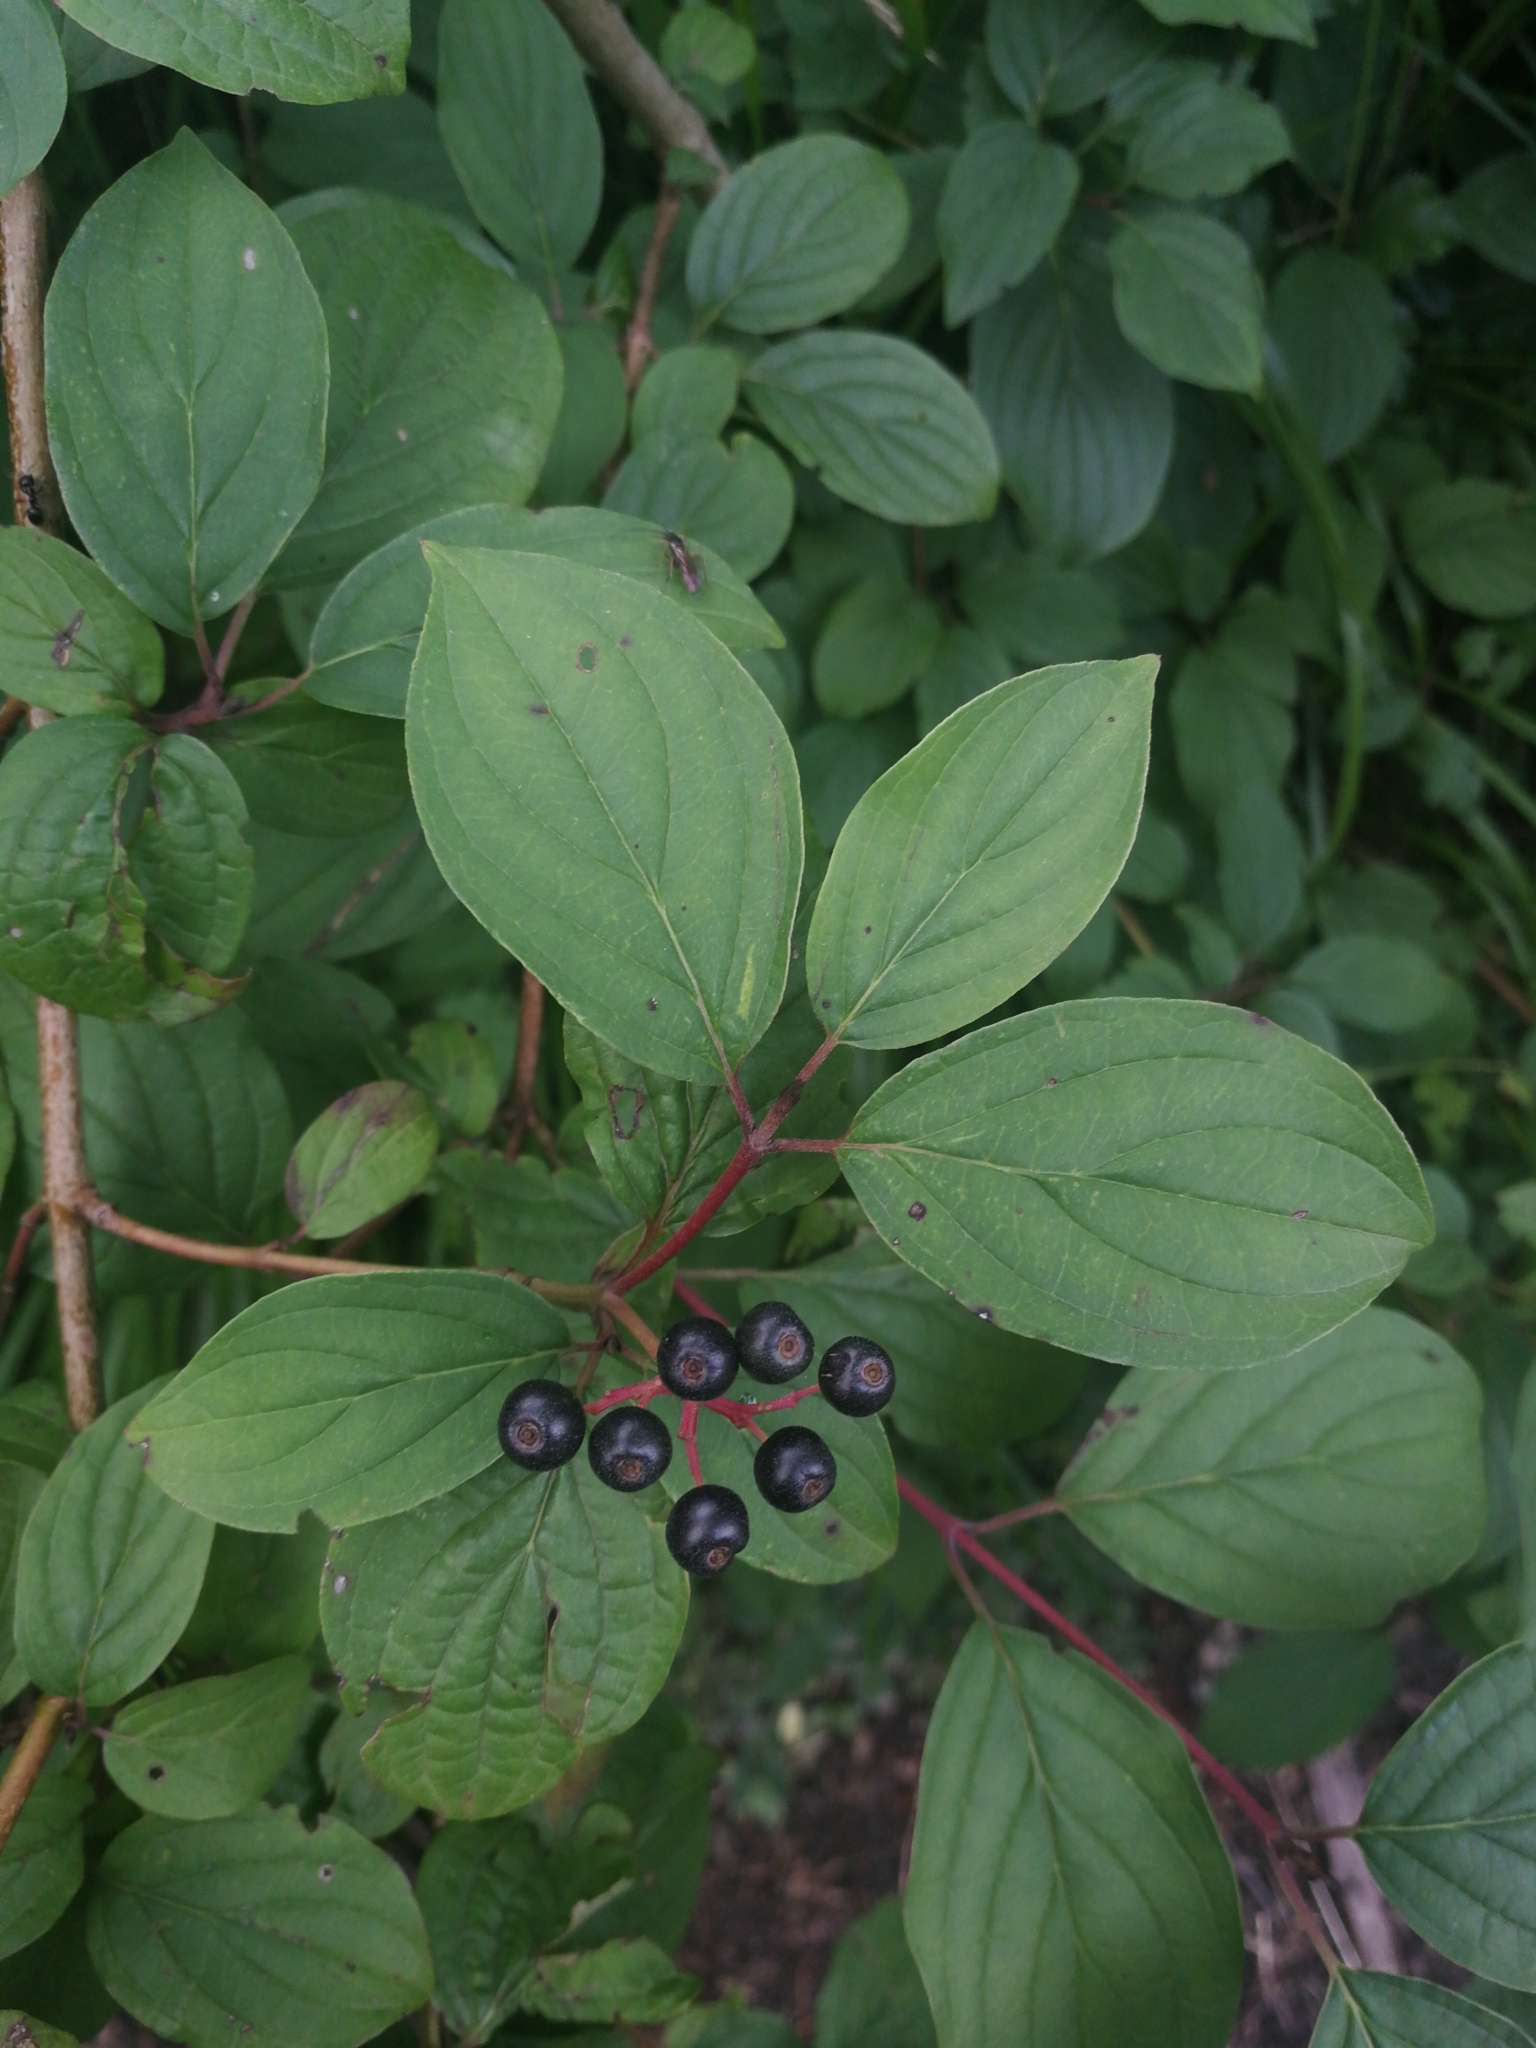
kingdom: Plantae
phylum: Tracheophyta
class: Magnoliopsida
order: Cornales
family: Cornaceae
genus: Cornus
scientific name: Cornus sanguinea
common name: Dogwood
